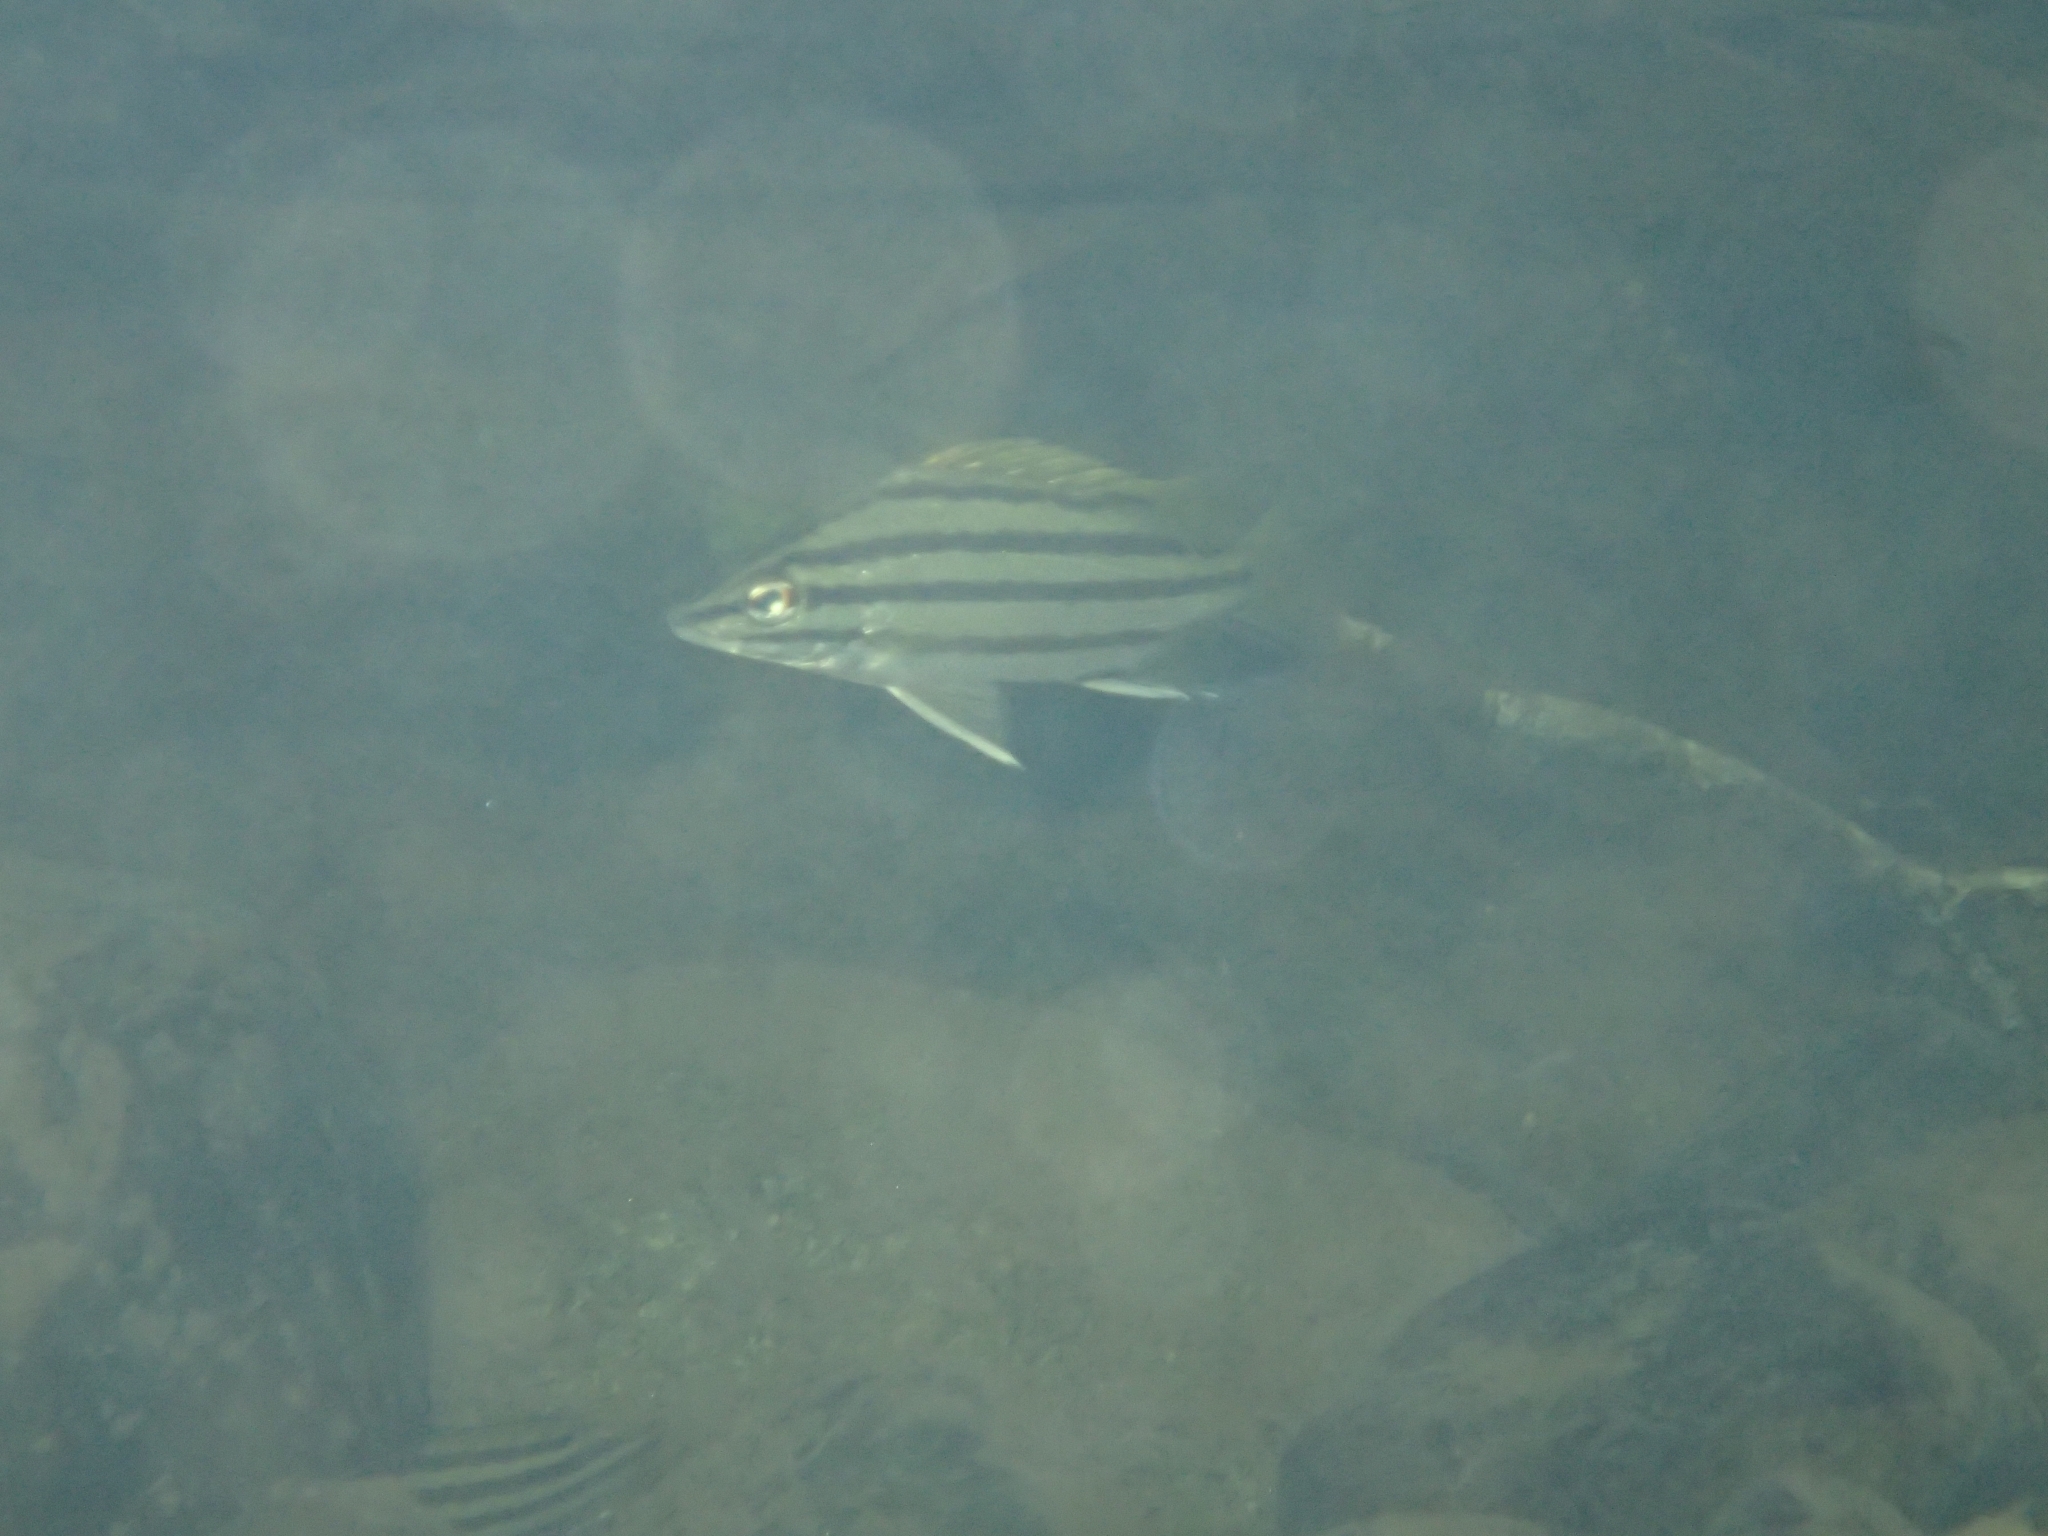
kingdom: Animalia
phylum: Chordata
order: Perciformes
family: Terapontidae
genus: Mesopristes
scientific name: Mesopristes argenteus
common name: Silver grunter
